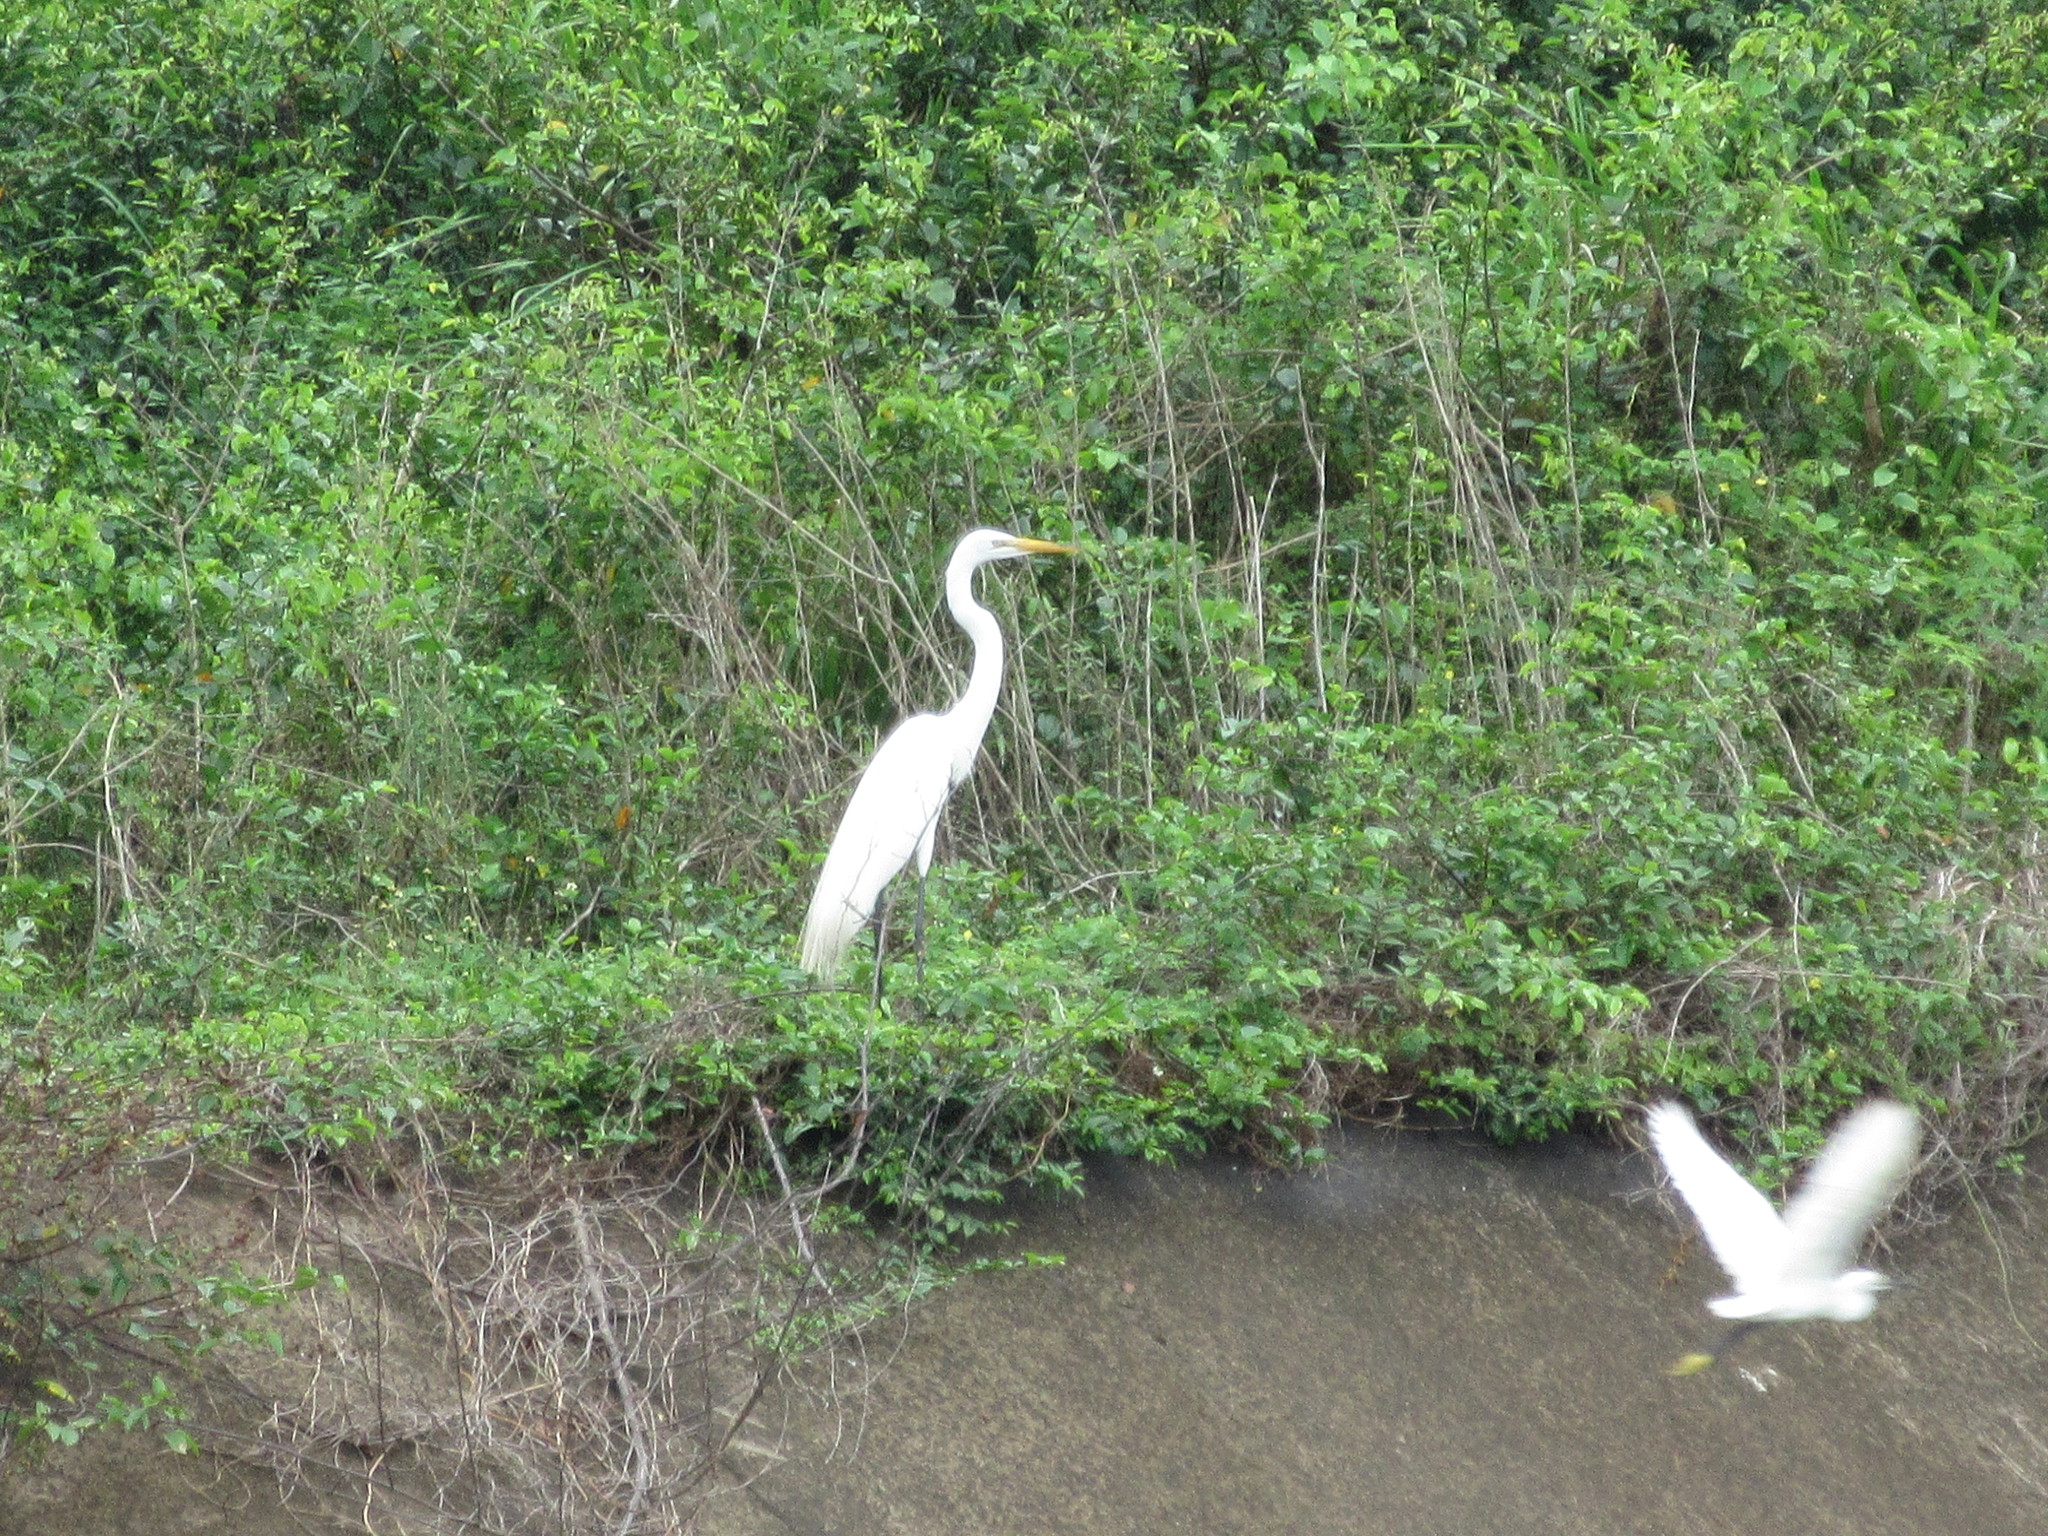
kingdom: Animalia
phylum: Chordata
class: Aves
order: Pelecaniformes
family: Ardeidae
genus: Ardea
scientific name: Ardea alba
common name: Great egret
